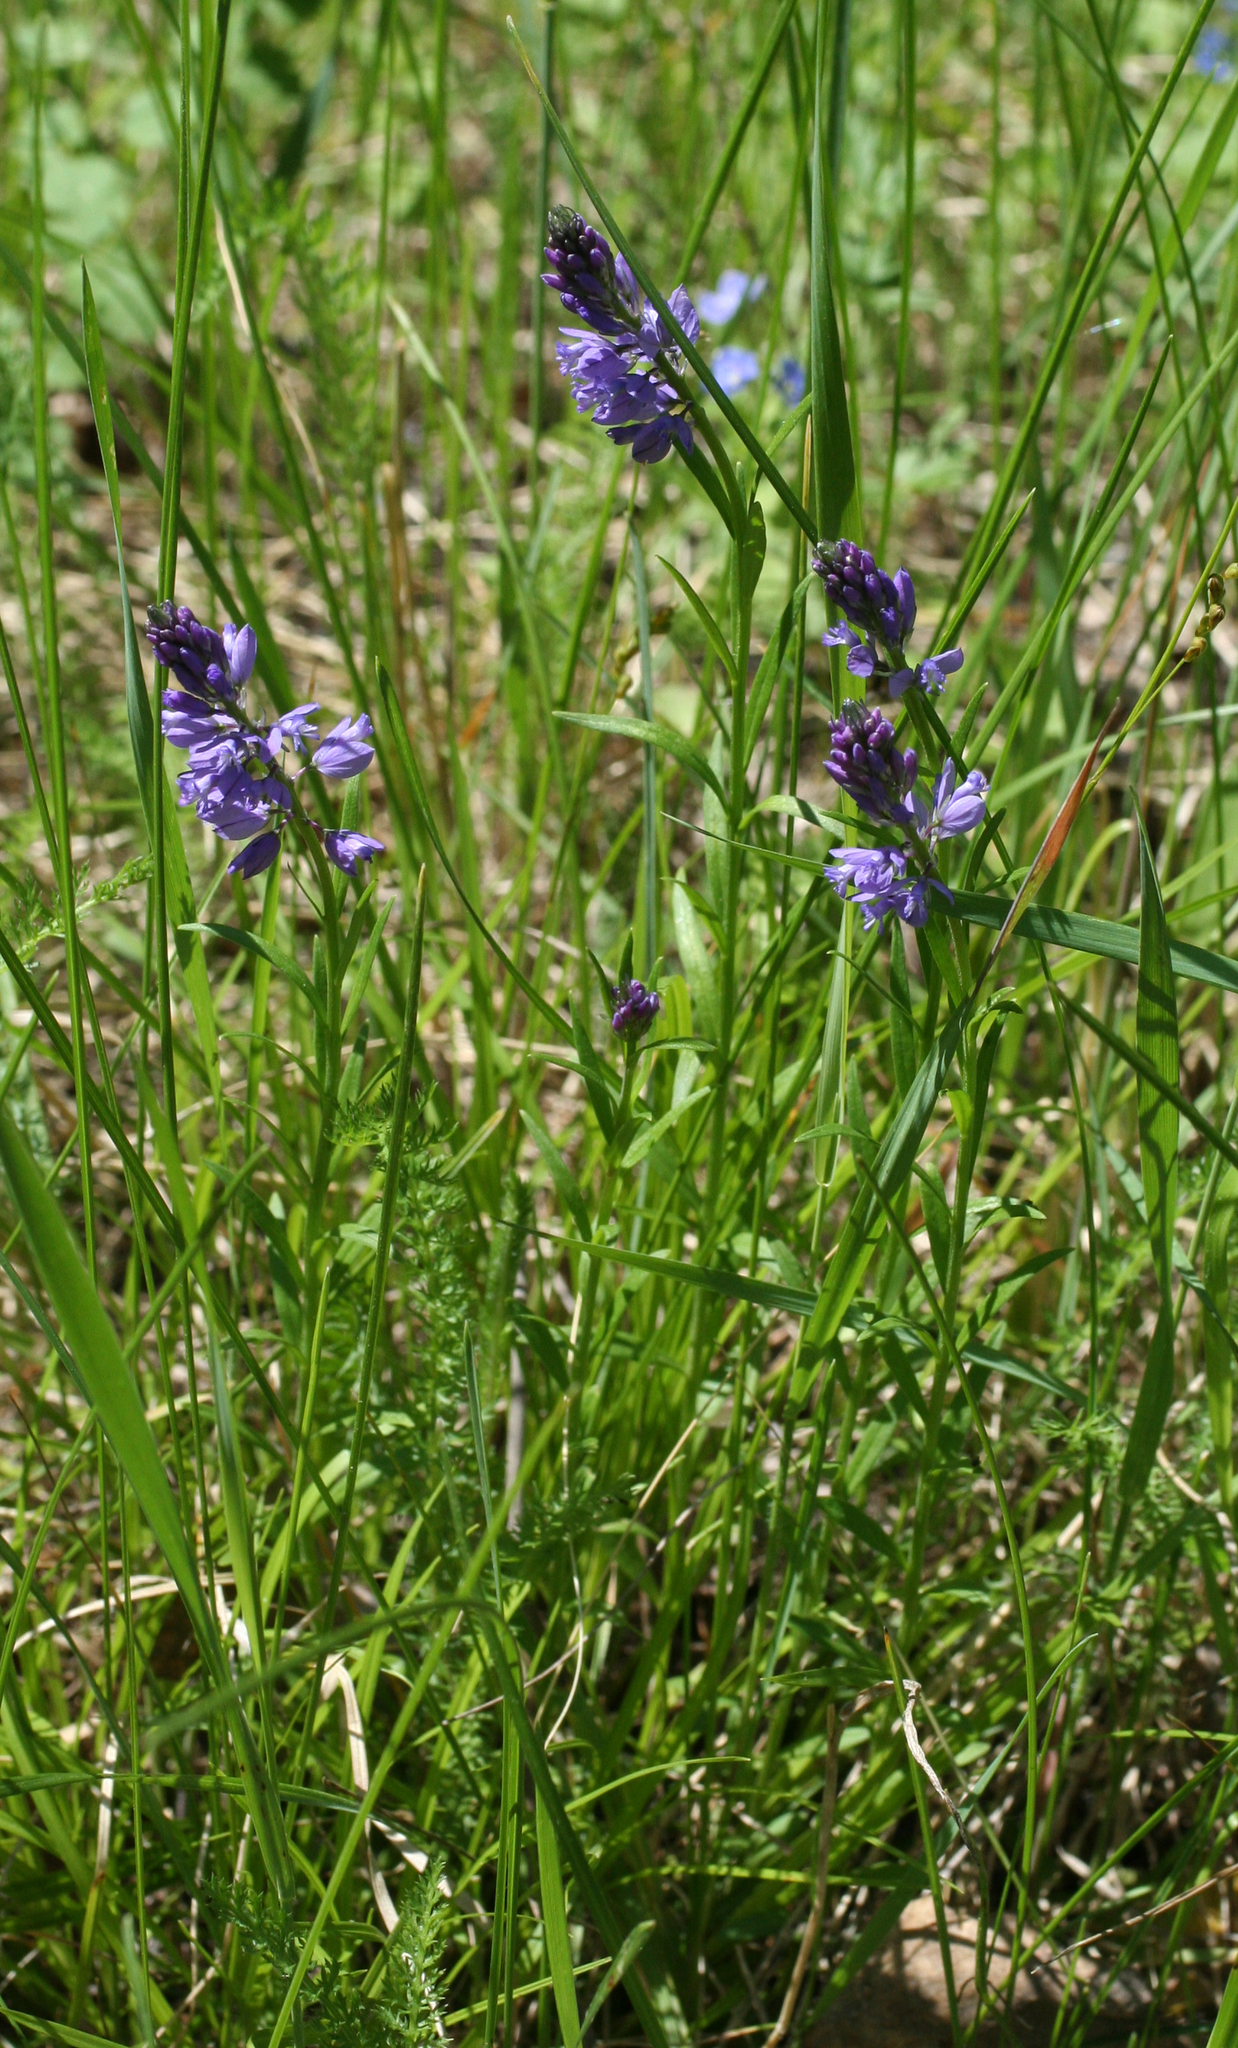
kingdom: Plantae
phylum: Tracheophyta
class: Magnoliopsida
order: Fabales
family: Polygalaceae
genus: Polygala
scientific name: Polygala comosa
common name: Tufted milkwort
